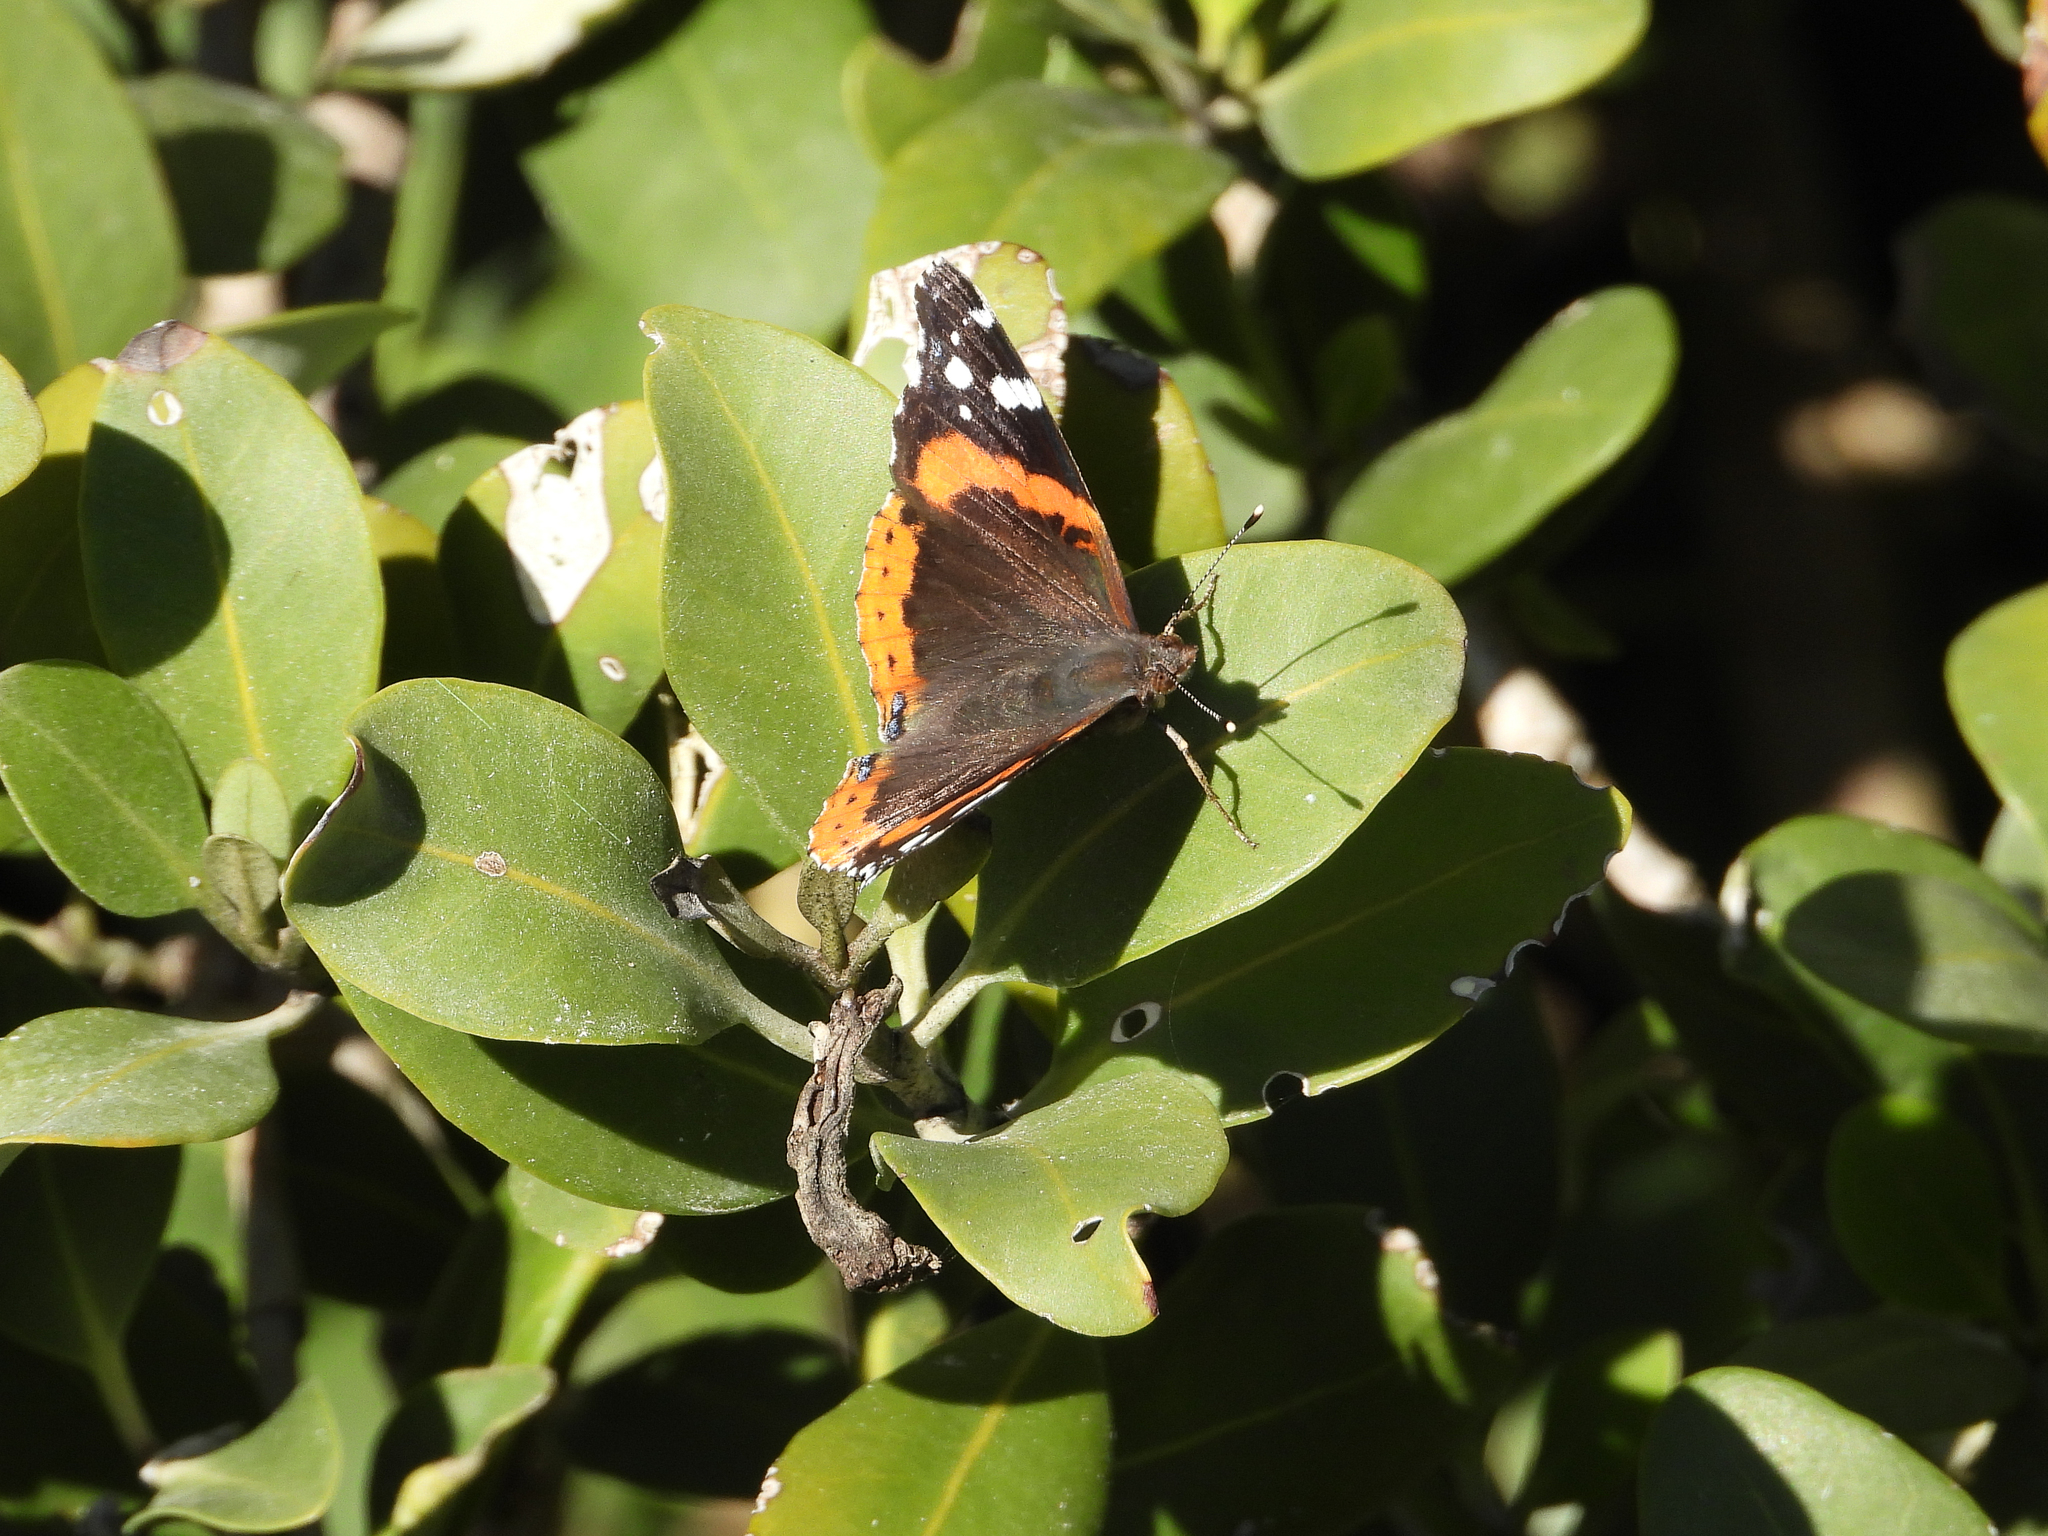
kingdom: Animalia
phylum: Arthropoda
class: Insecta
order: Lepidoptera
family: Nymphalidae
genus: Vanessa
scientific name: Vanessa atalanta
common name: Red admiral
